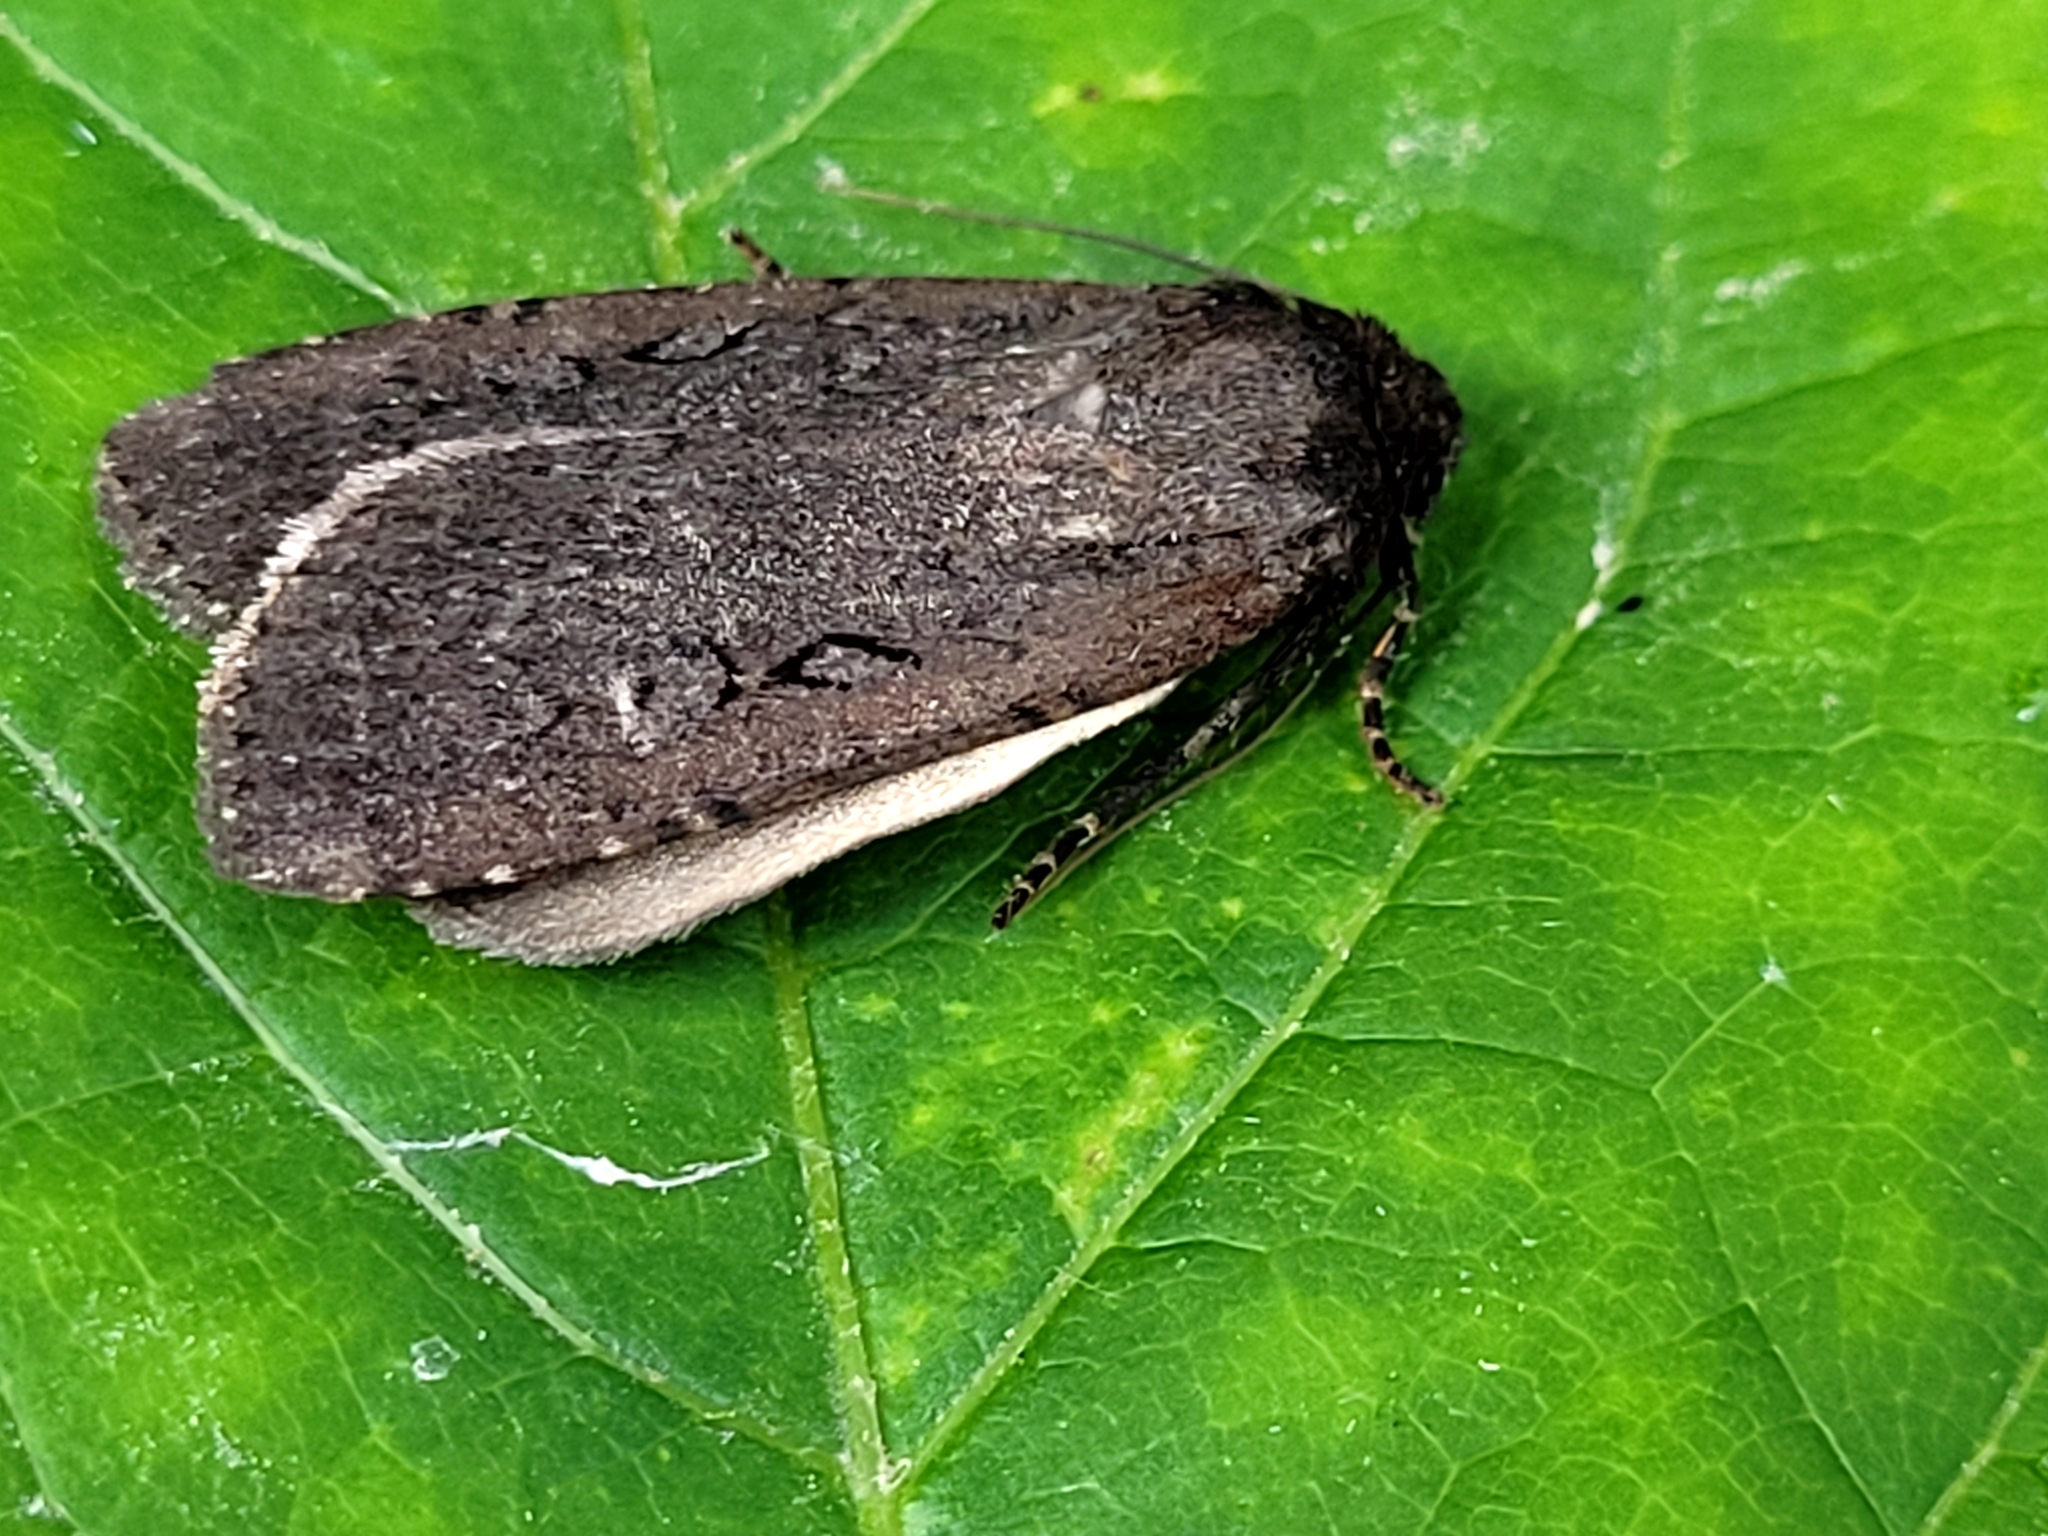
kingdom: Animalia
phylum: Arthropoda
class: Insecta
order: Lepidoptera
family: Noctuidae
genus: Spaelotis
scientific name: Spaelotis clandestina
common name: Clandestine dart
